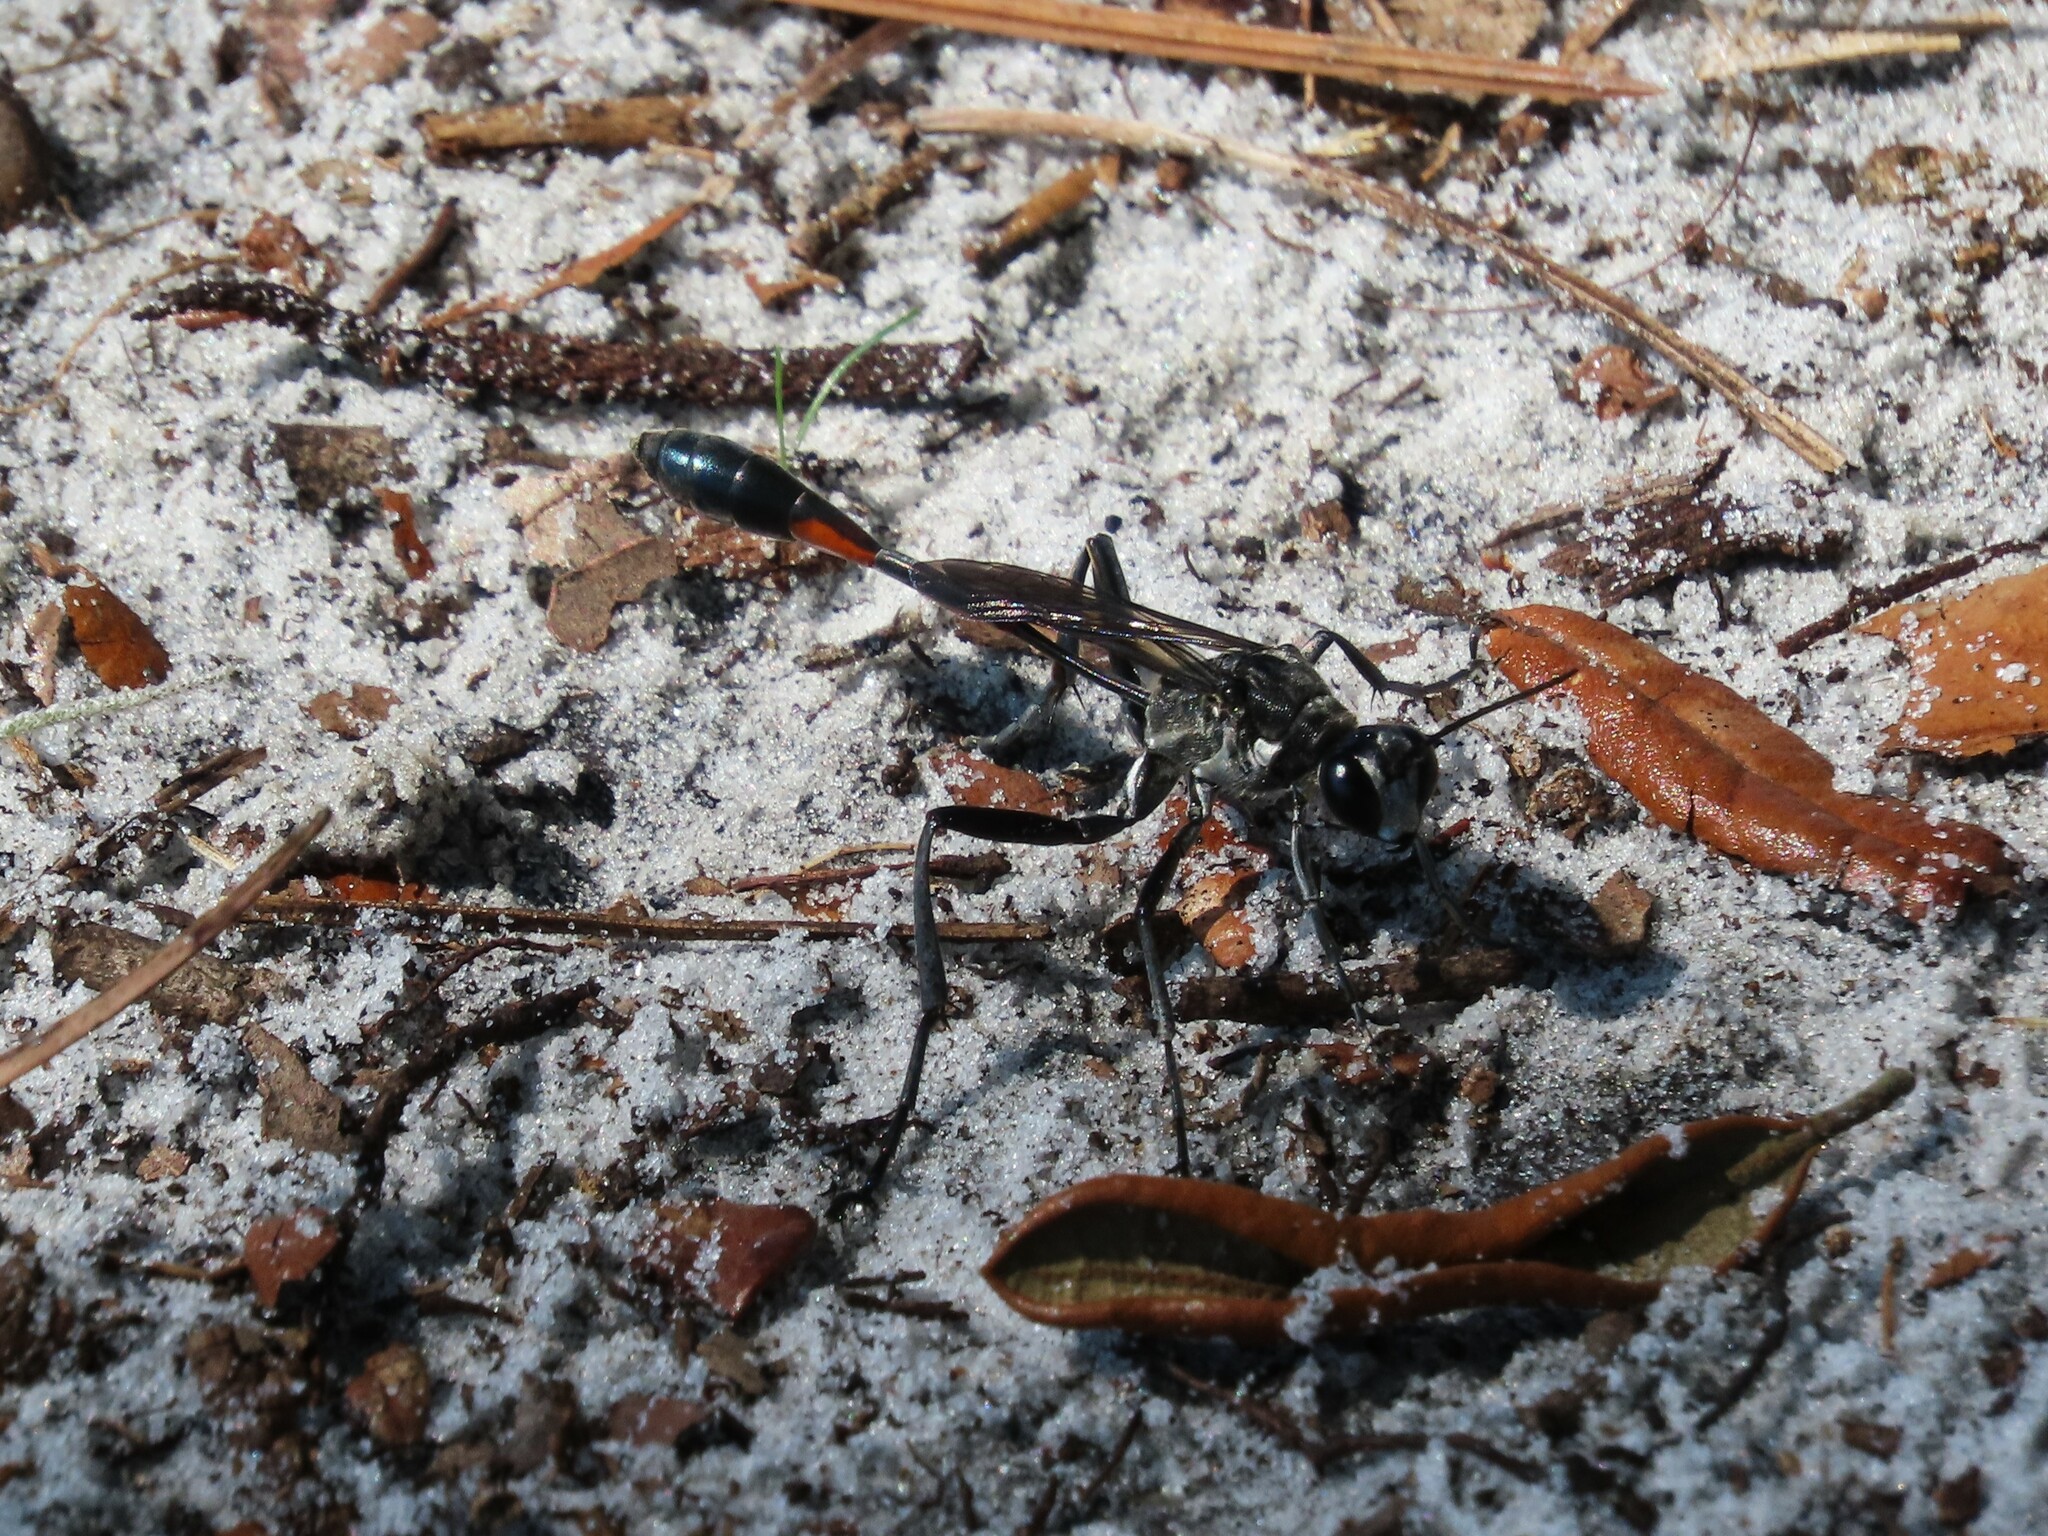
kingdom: Animalia
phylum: Arthropoda
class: Insecta
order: Hymenoptera
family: Sphecidae
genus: Ammophila
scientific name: Ammophila procera
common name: Common thread-waisted wasp
